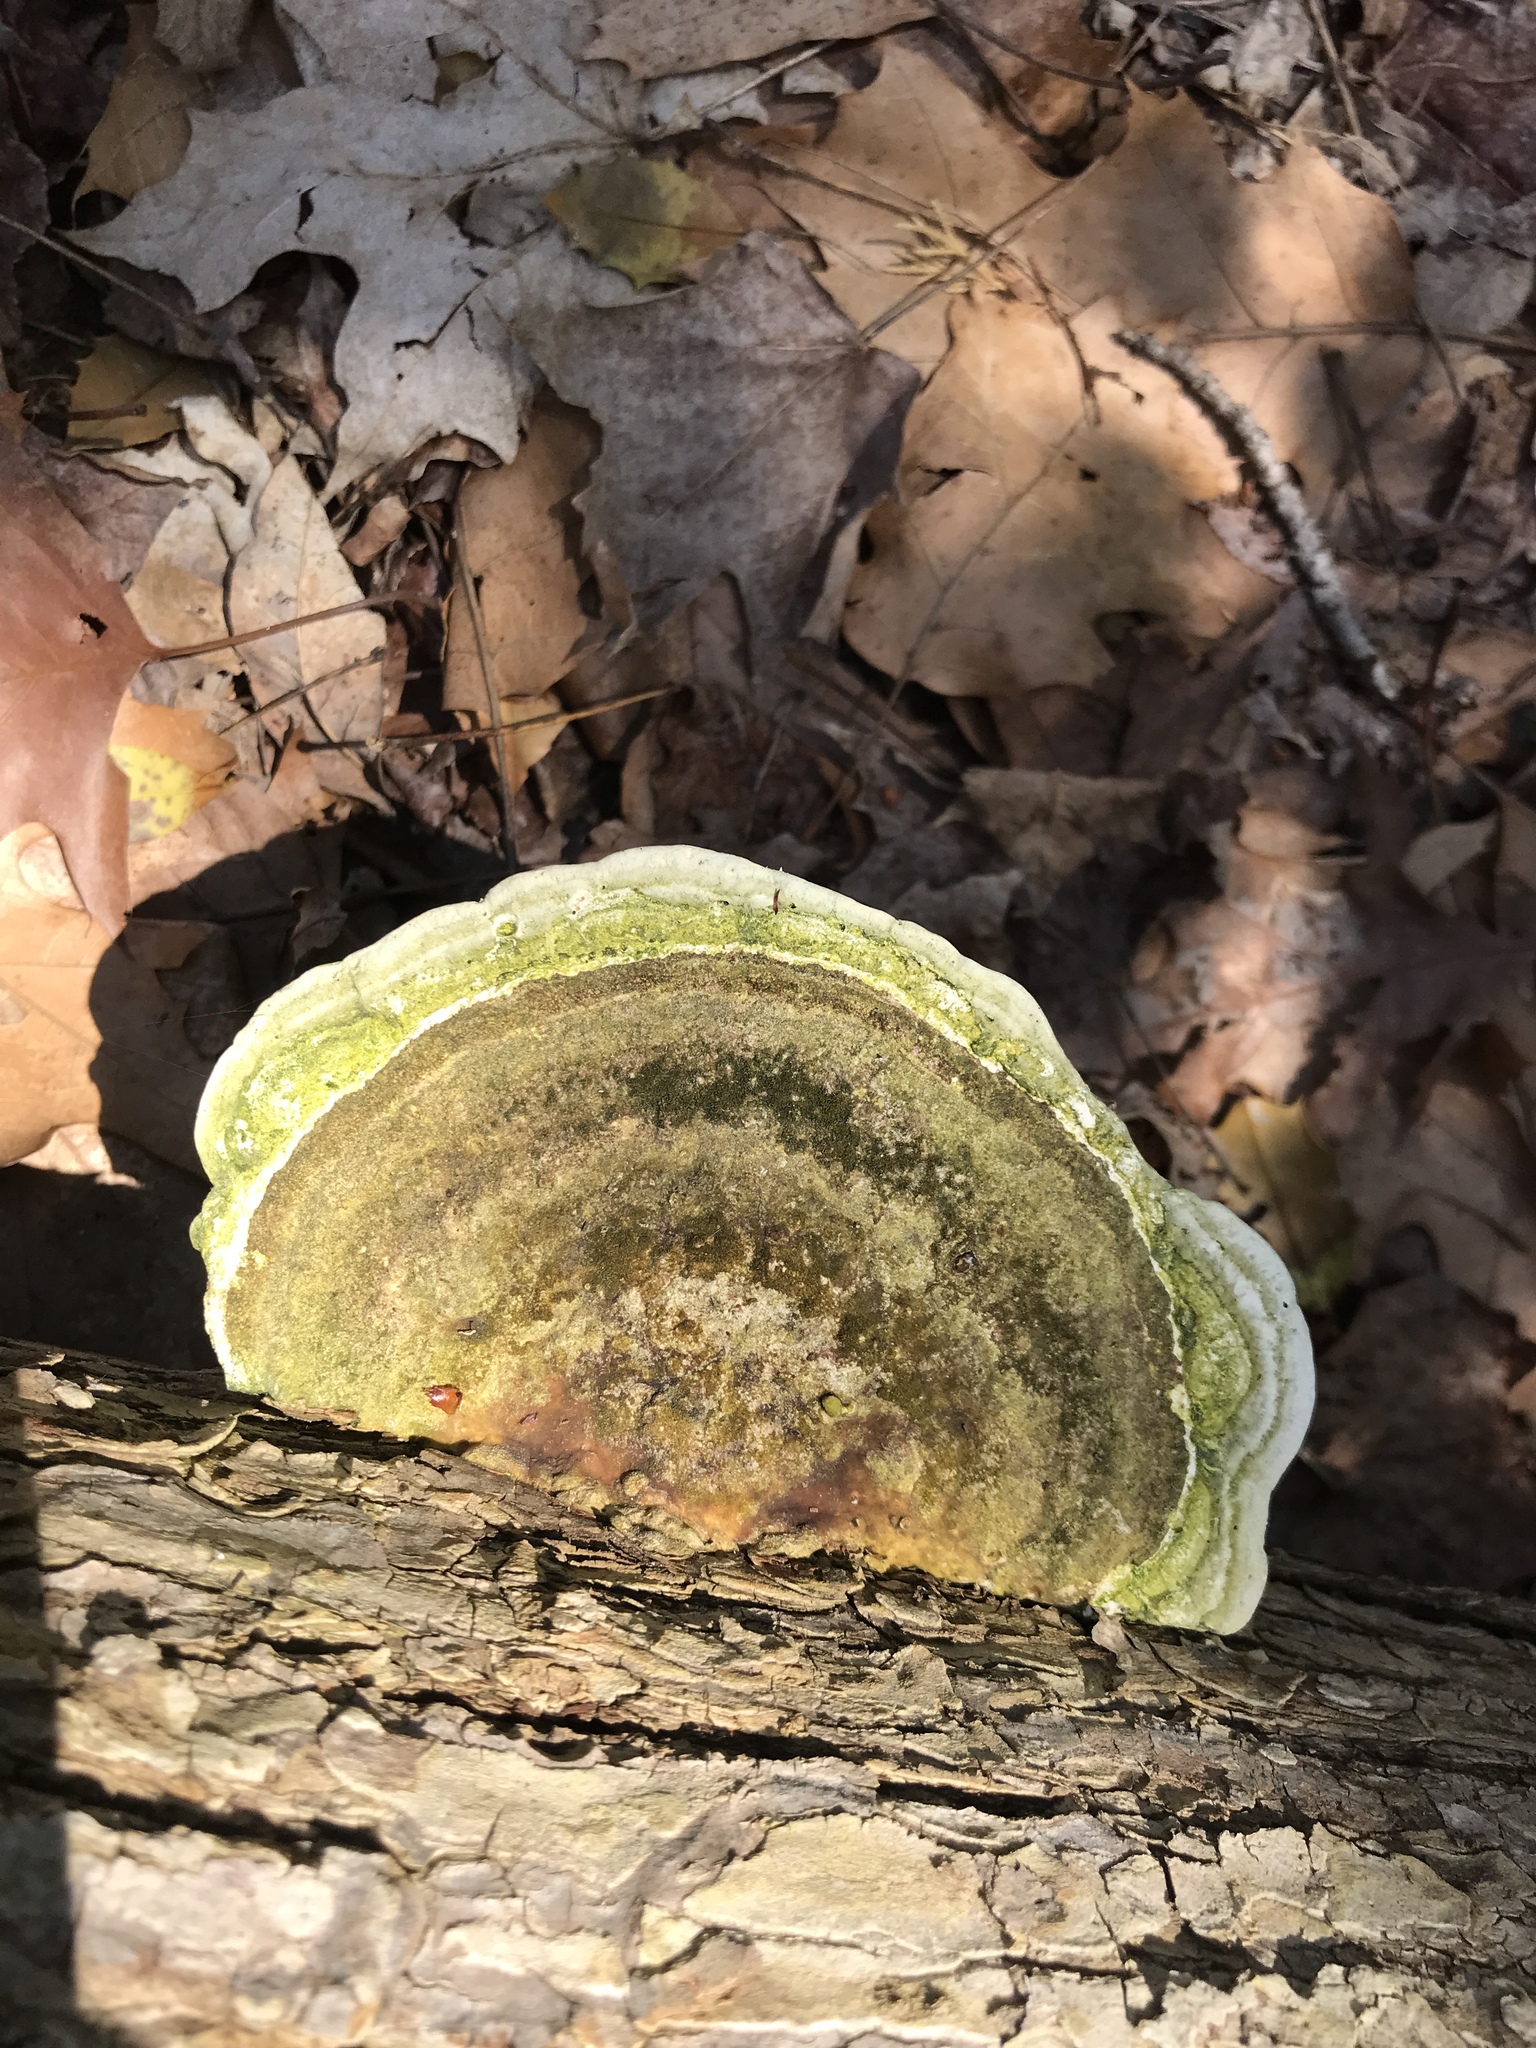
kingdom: Fungi
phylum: Basidiomycota
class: Agaricomycetes
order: Polyporales
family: Polyporaceae
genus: Trametes
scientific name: Trametes gibbosa
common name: Lumpy bracket
